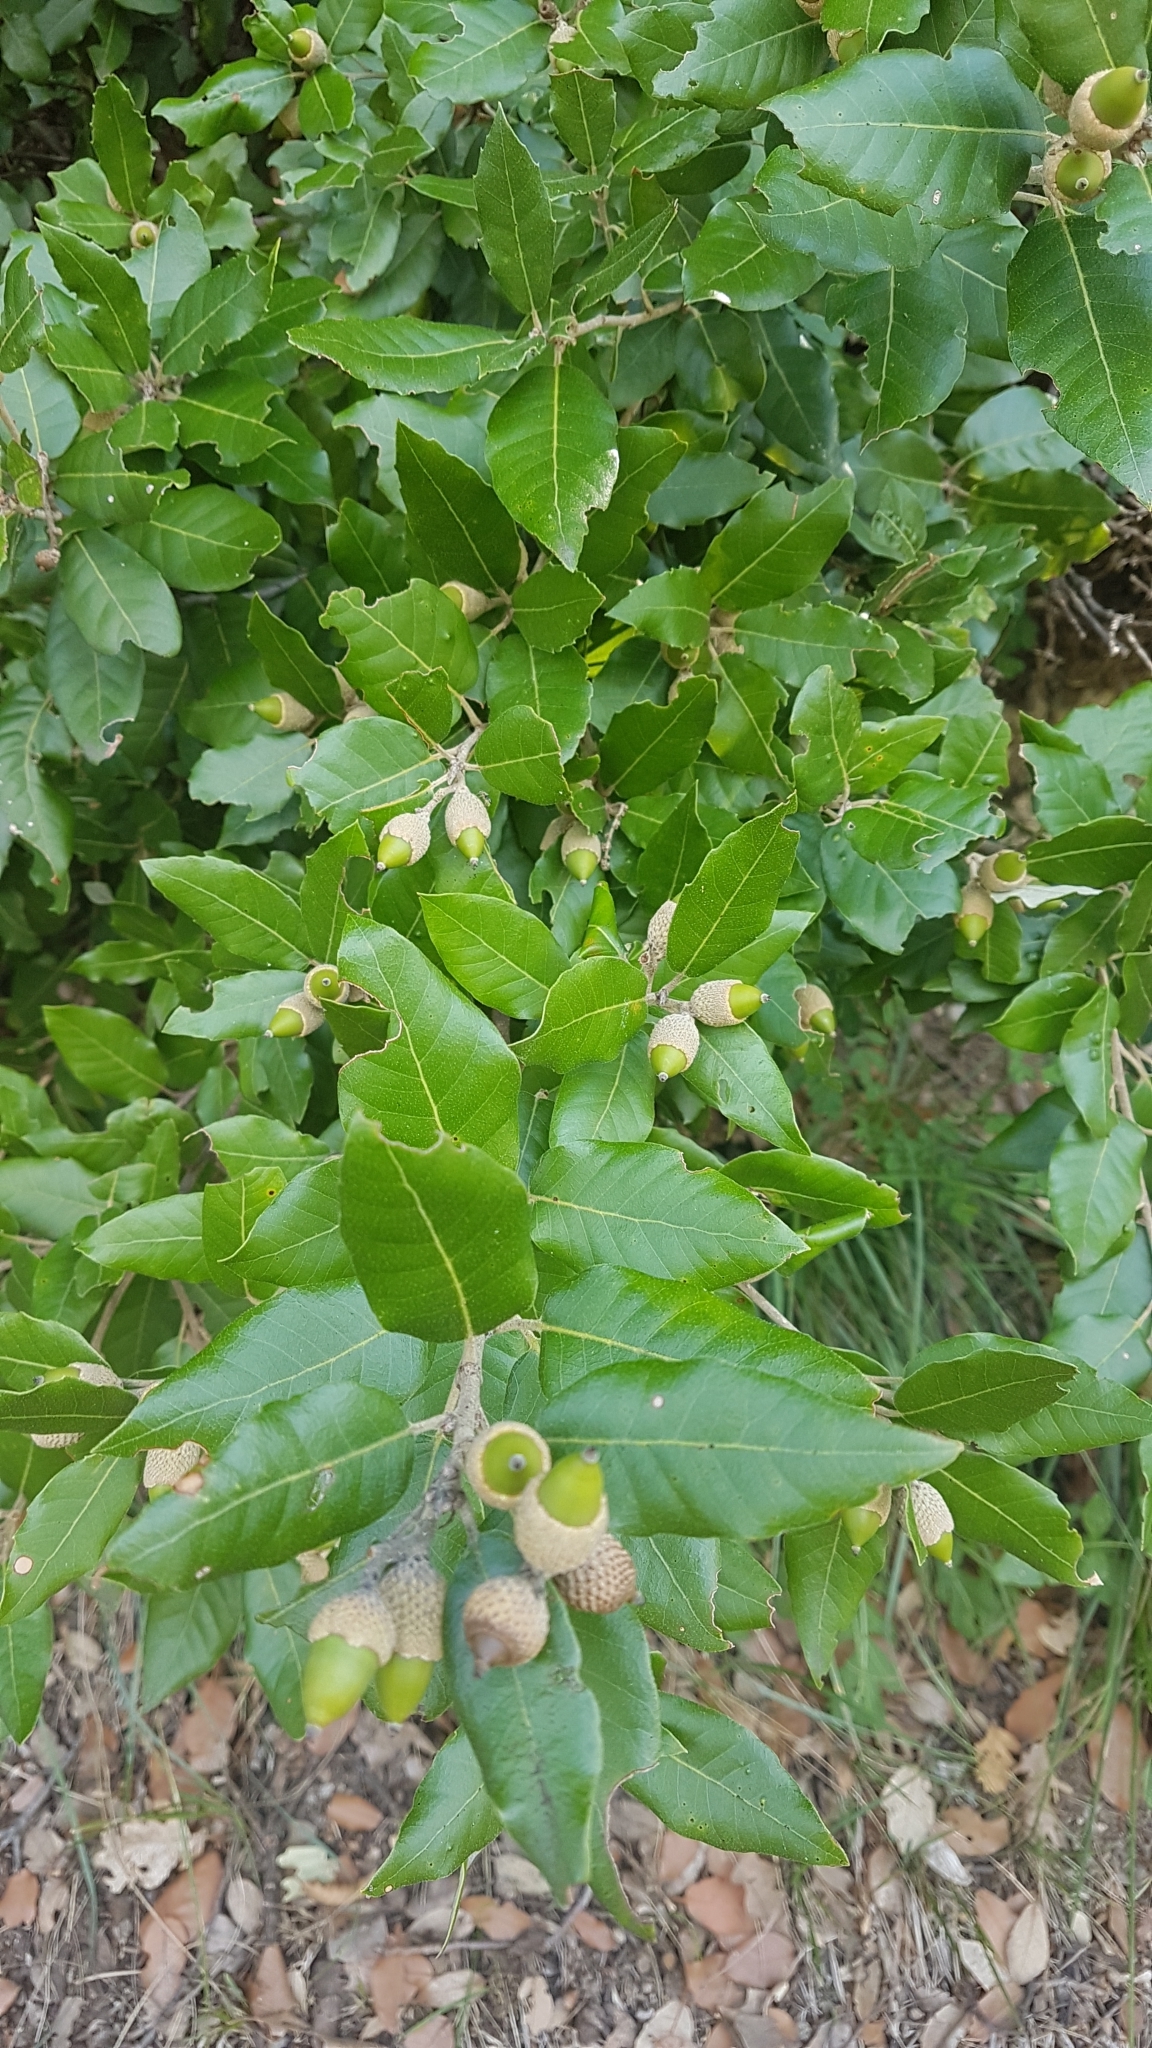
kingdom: Plantae
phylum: Tracheophyta
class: Magnoliopsida
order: Fagales
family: Fagaceae
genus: Quercus
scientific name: Quercus ilex
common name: Evergreen oak
